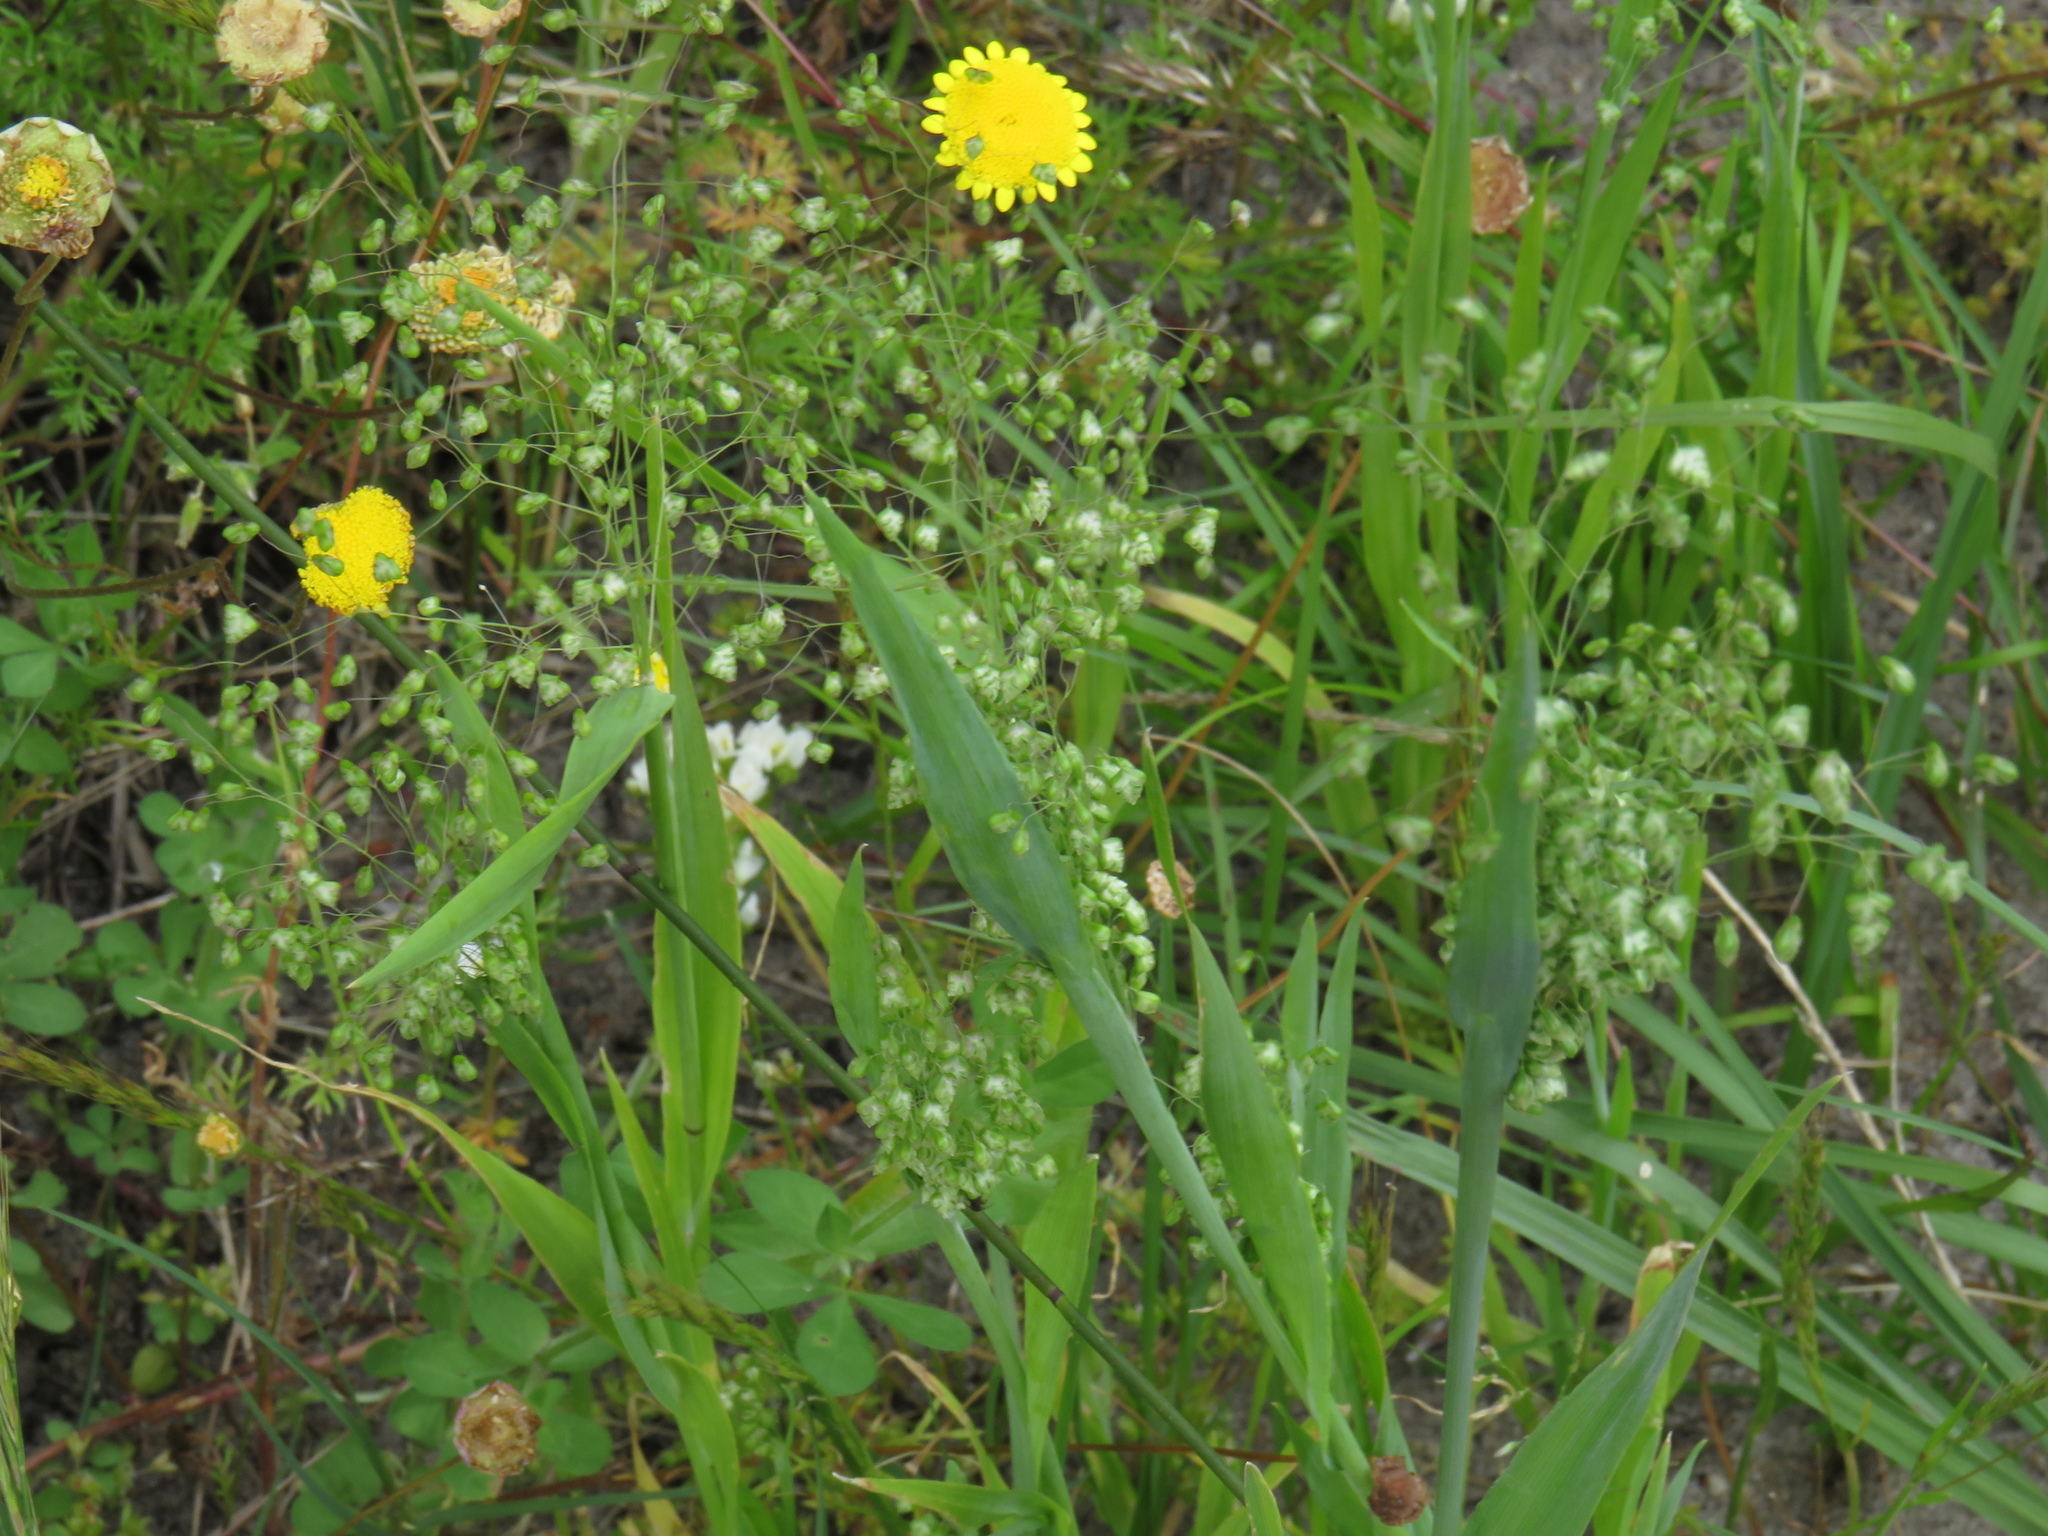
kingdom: Plantae
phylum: Tracheophyta
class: Liliopsida
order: Poales
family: Poaceae
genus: Briza
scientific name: Briza minor
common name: Lesser quaking-grass
